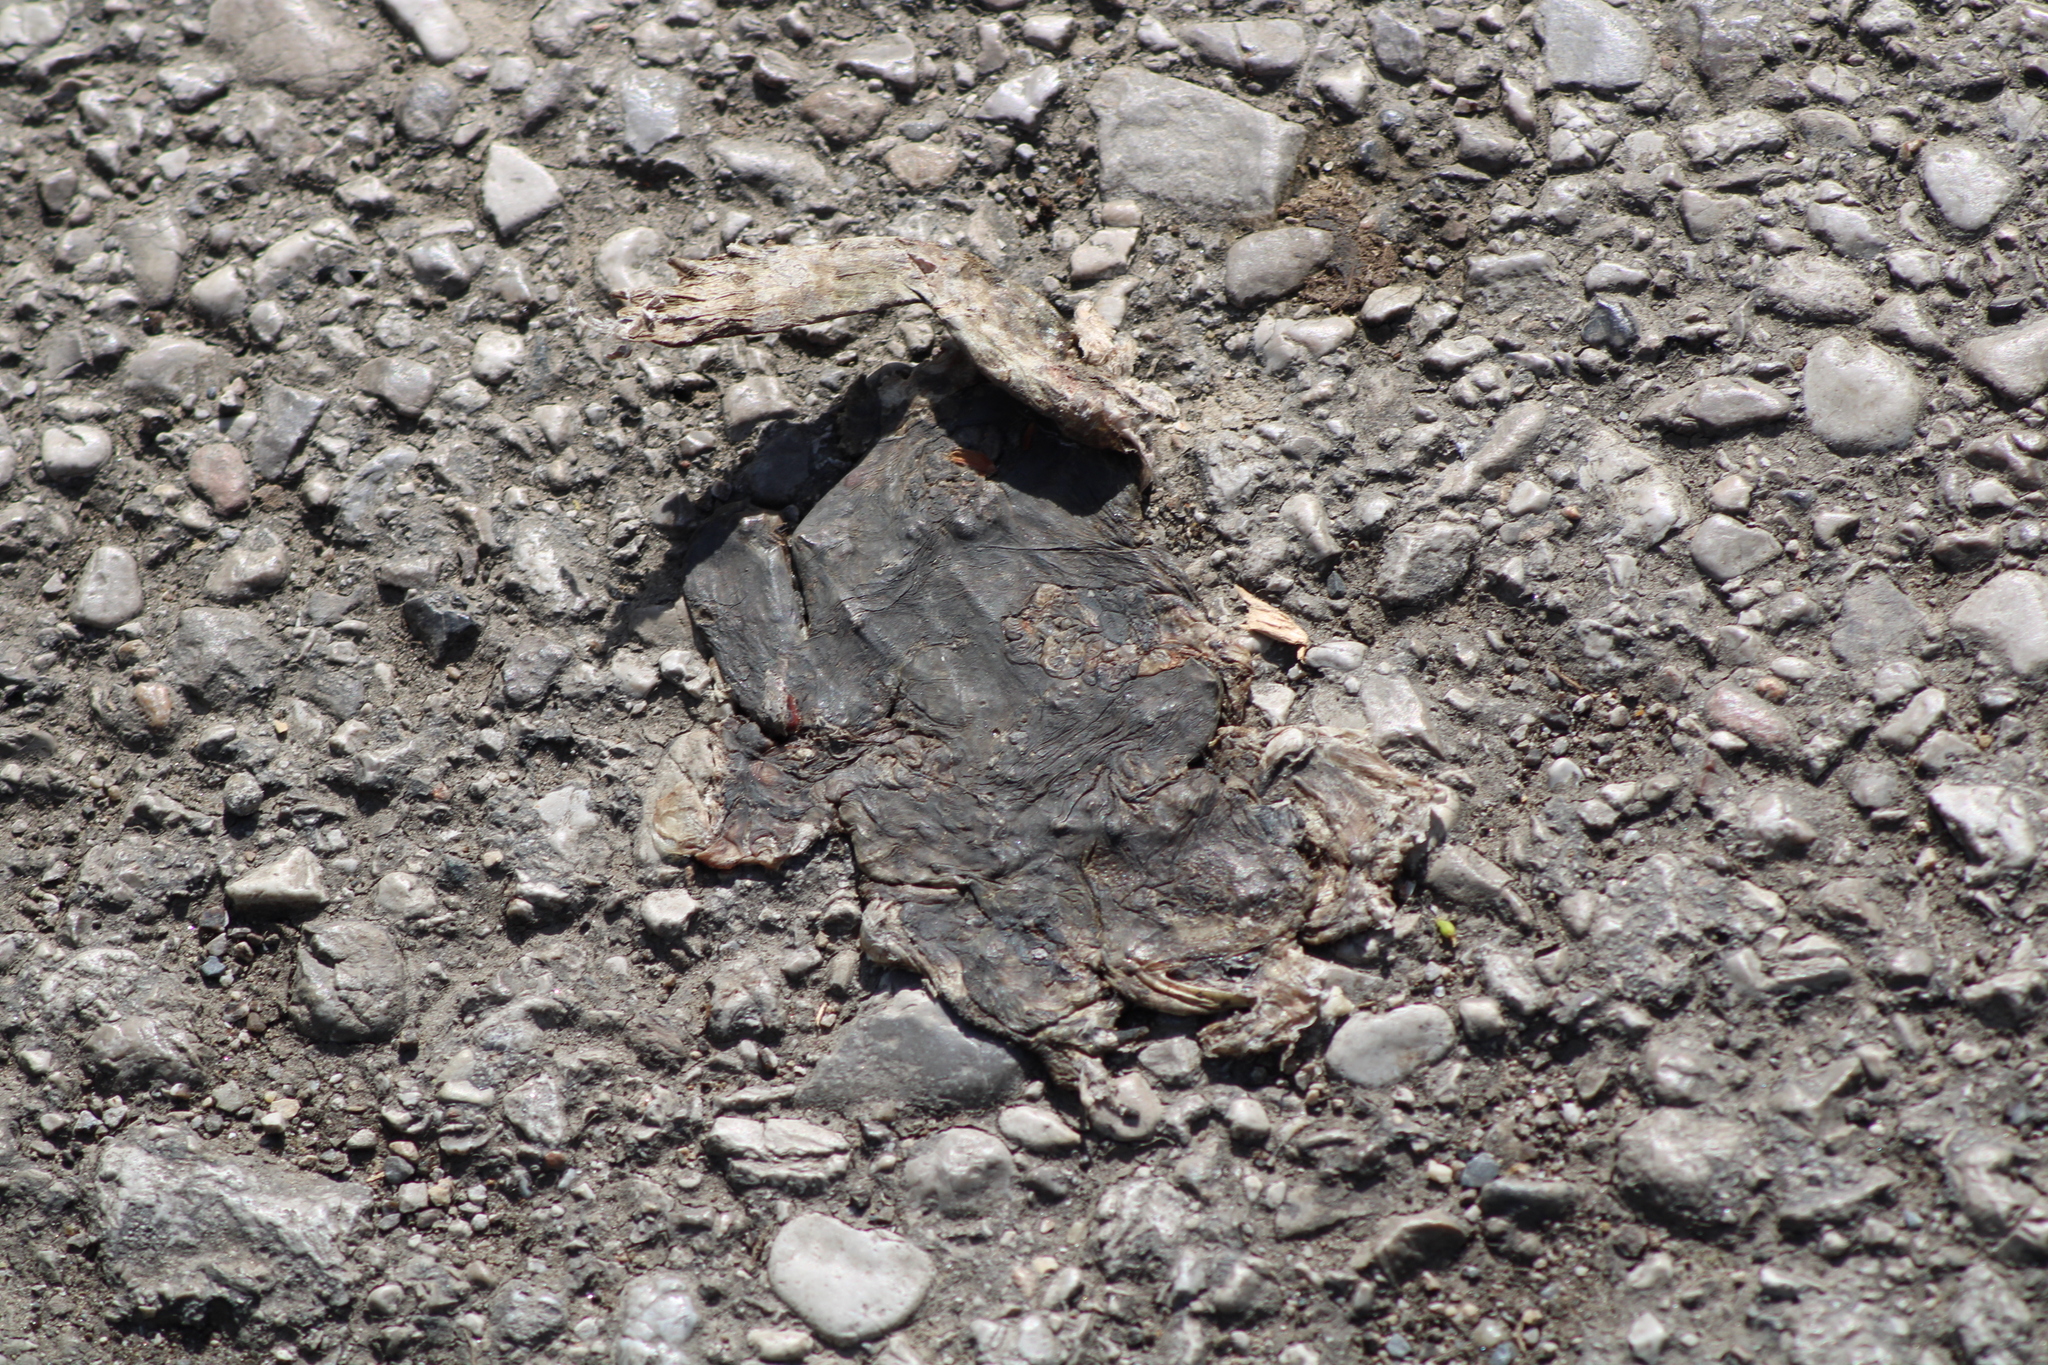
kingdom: Animalia
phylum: Chordata
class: Amphibia
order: Anura
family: Bufonidae
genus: Bufo
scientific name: Bufo bufo
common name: Common toad
